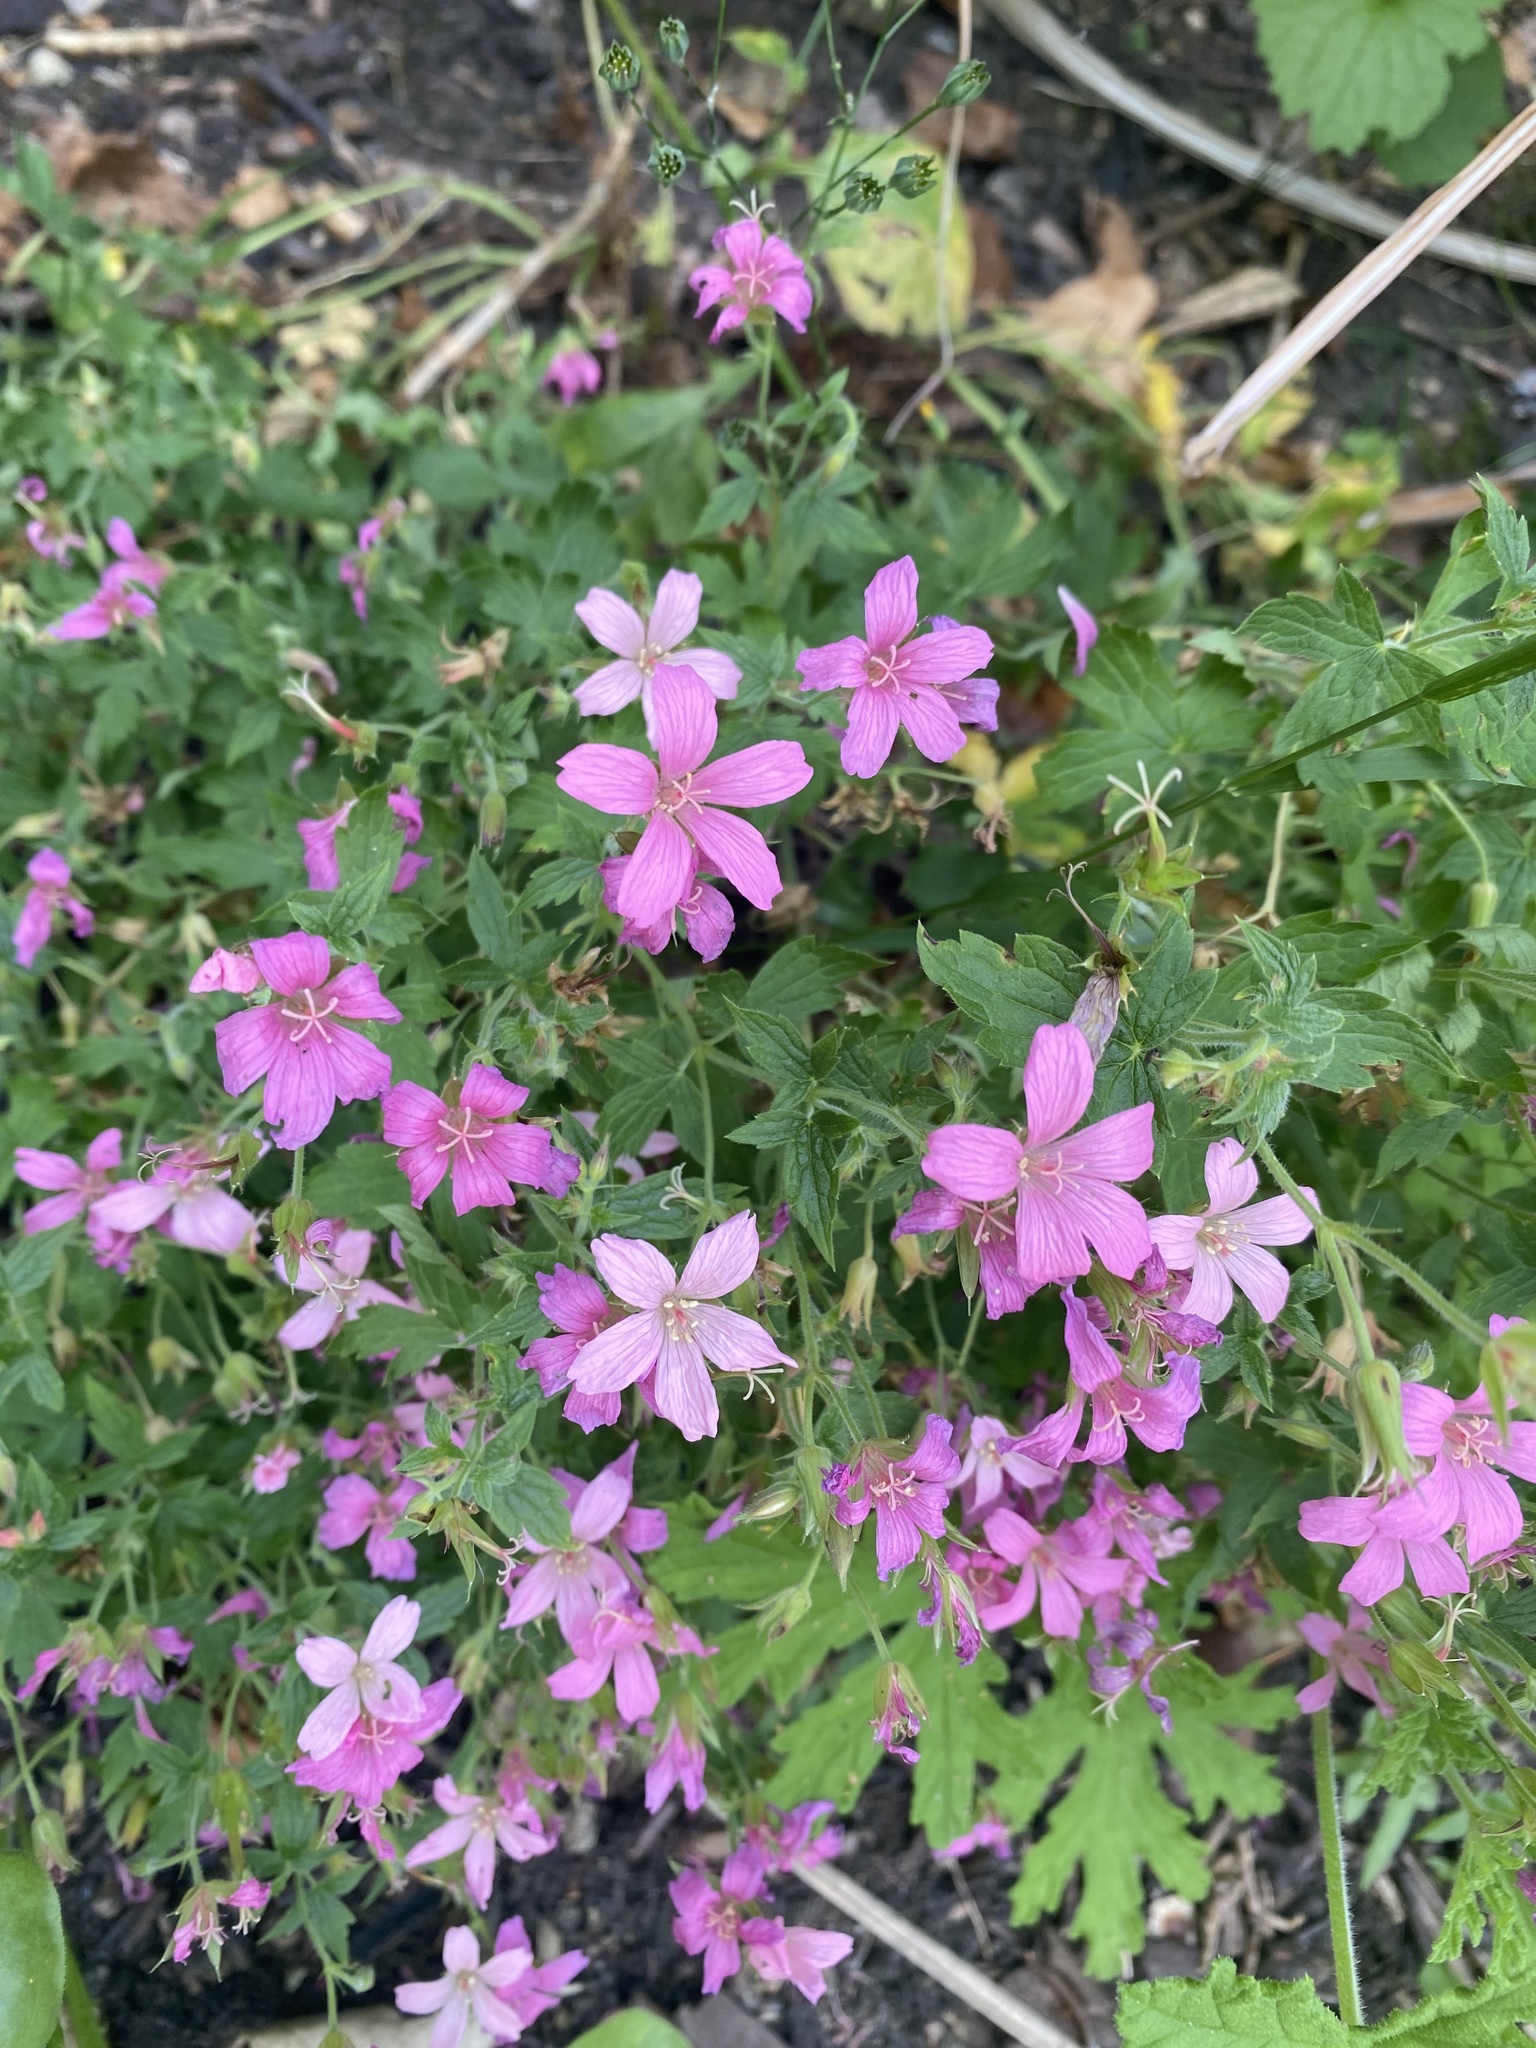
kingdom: Plantae
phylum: Tracheophyta
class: Magnoliopsida
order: Geraniales
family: Geraniaceae
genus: Geranium
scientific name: Geranium oxonianum
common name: Druce's crane's-bill
